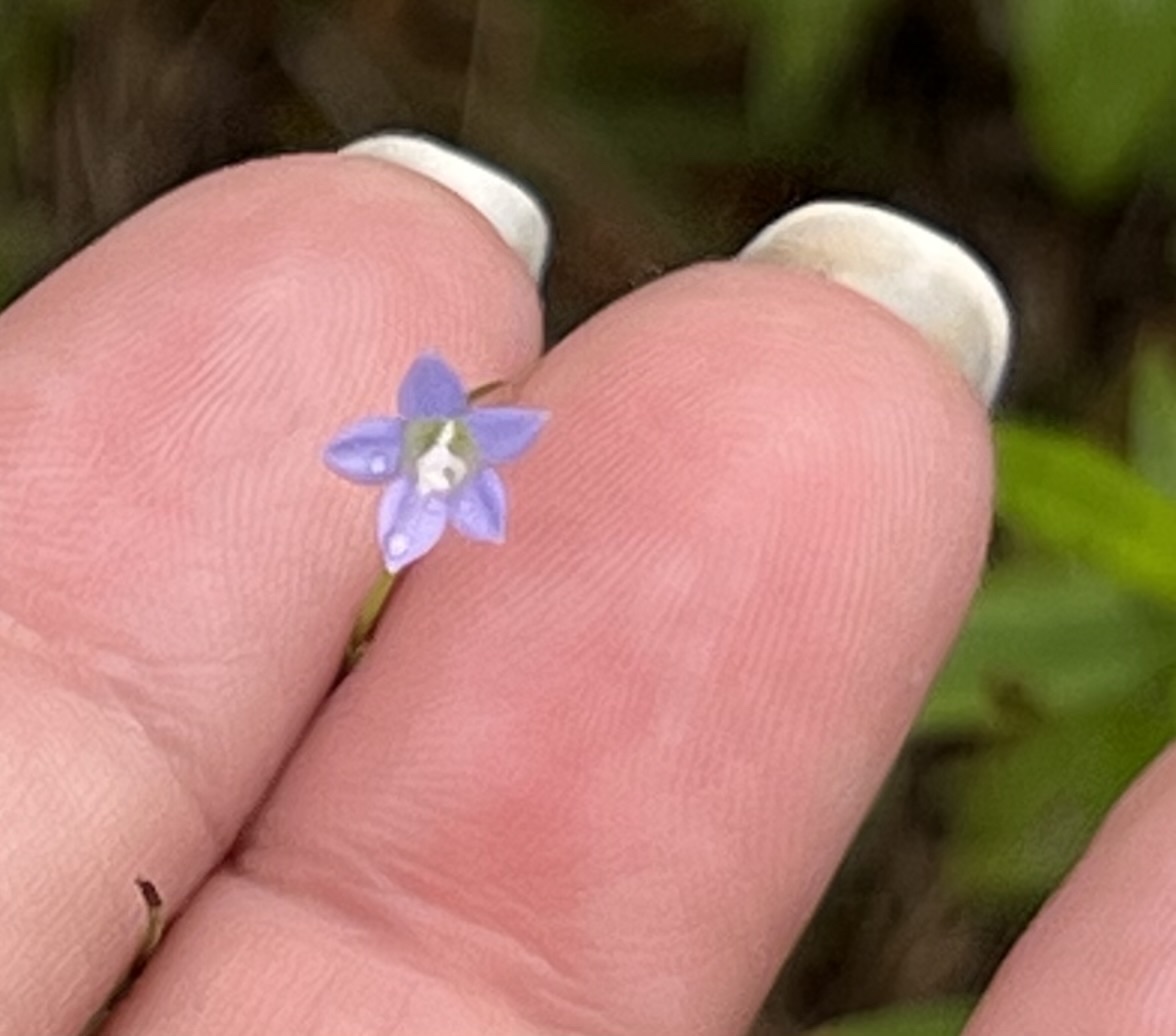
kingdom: Plantae
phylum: Tracheophyta
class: Magnoliopsida
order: Asterales
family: Campanulaceae
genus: Wahlenbergia
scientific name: Wahlenbergia marginata
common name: Southern rockbell
